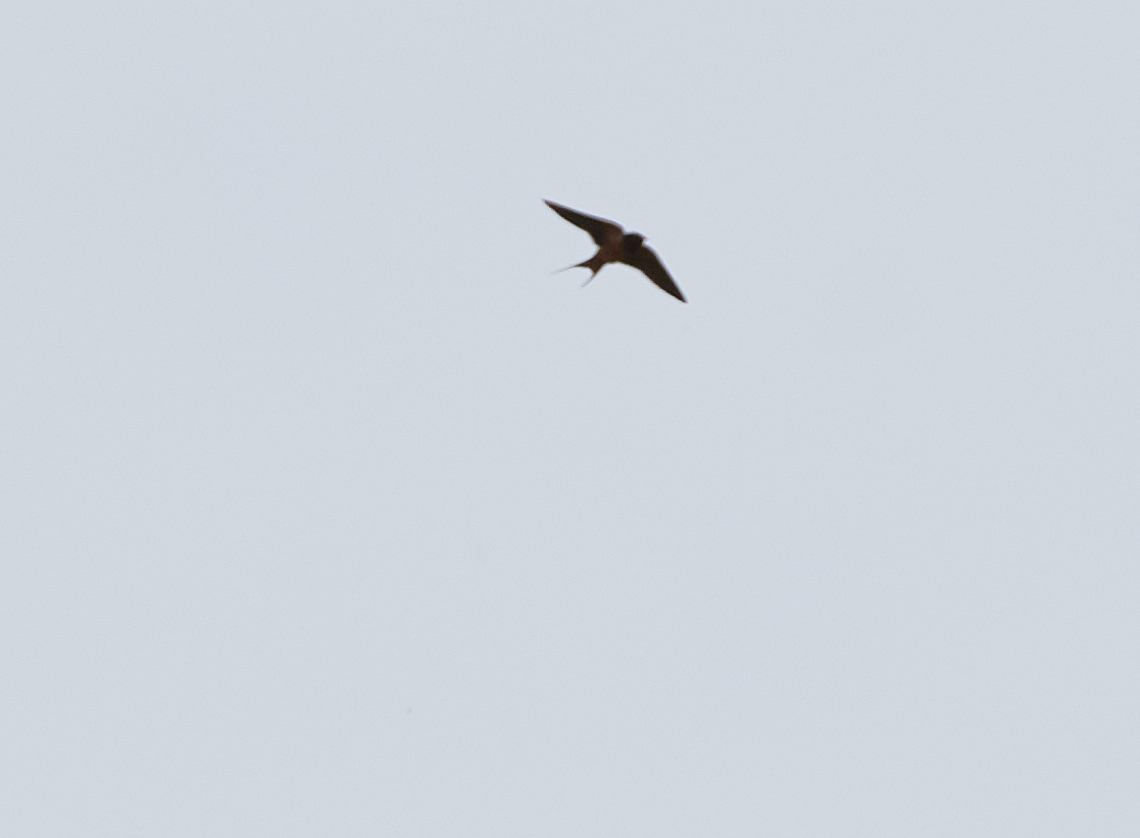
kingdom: Animalia
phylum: Chordata
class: Aves
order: Passeriformes
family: Hirundinidae
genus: Hirundo
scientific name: Hirundo rustica
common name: Barn swallow
